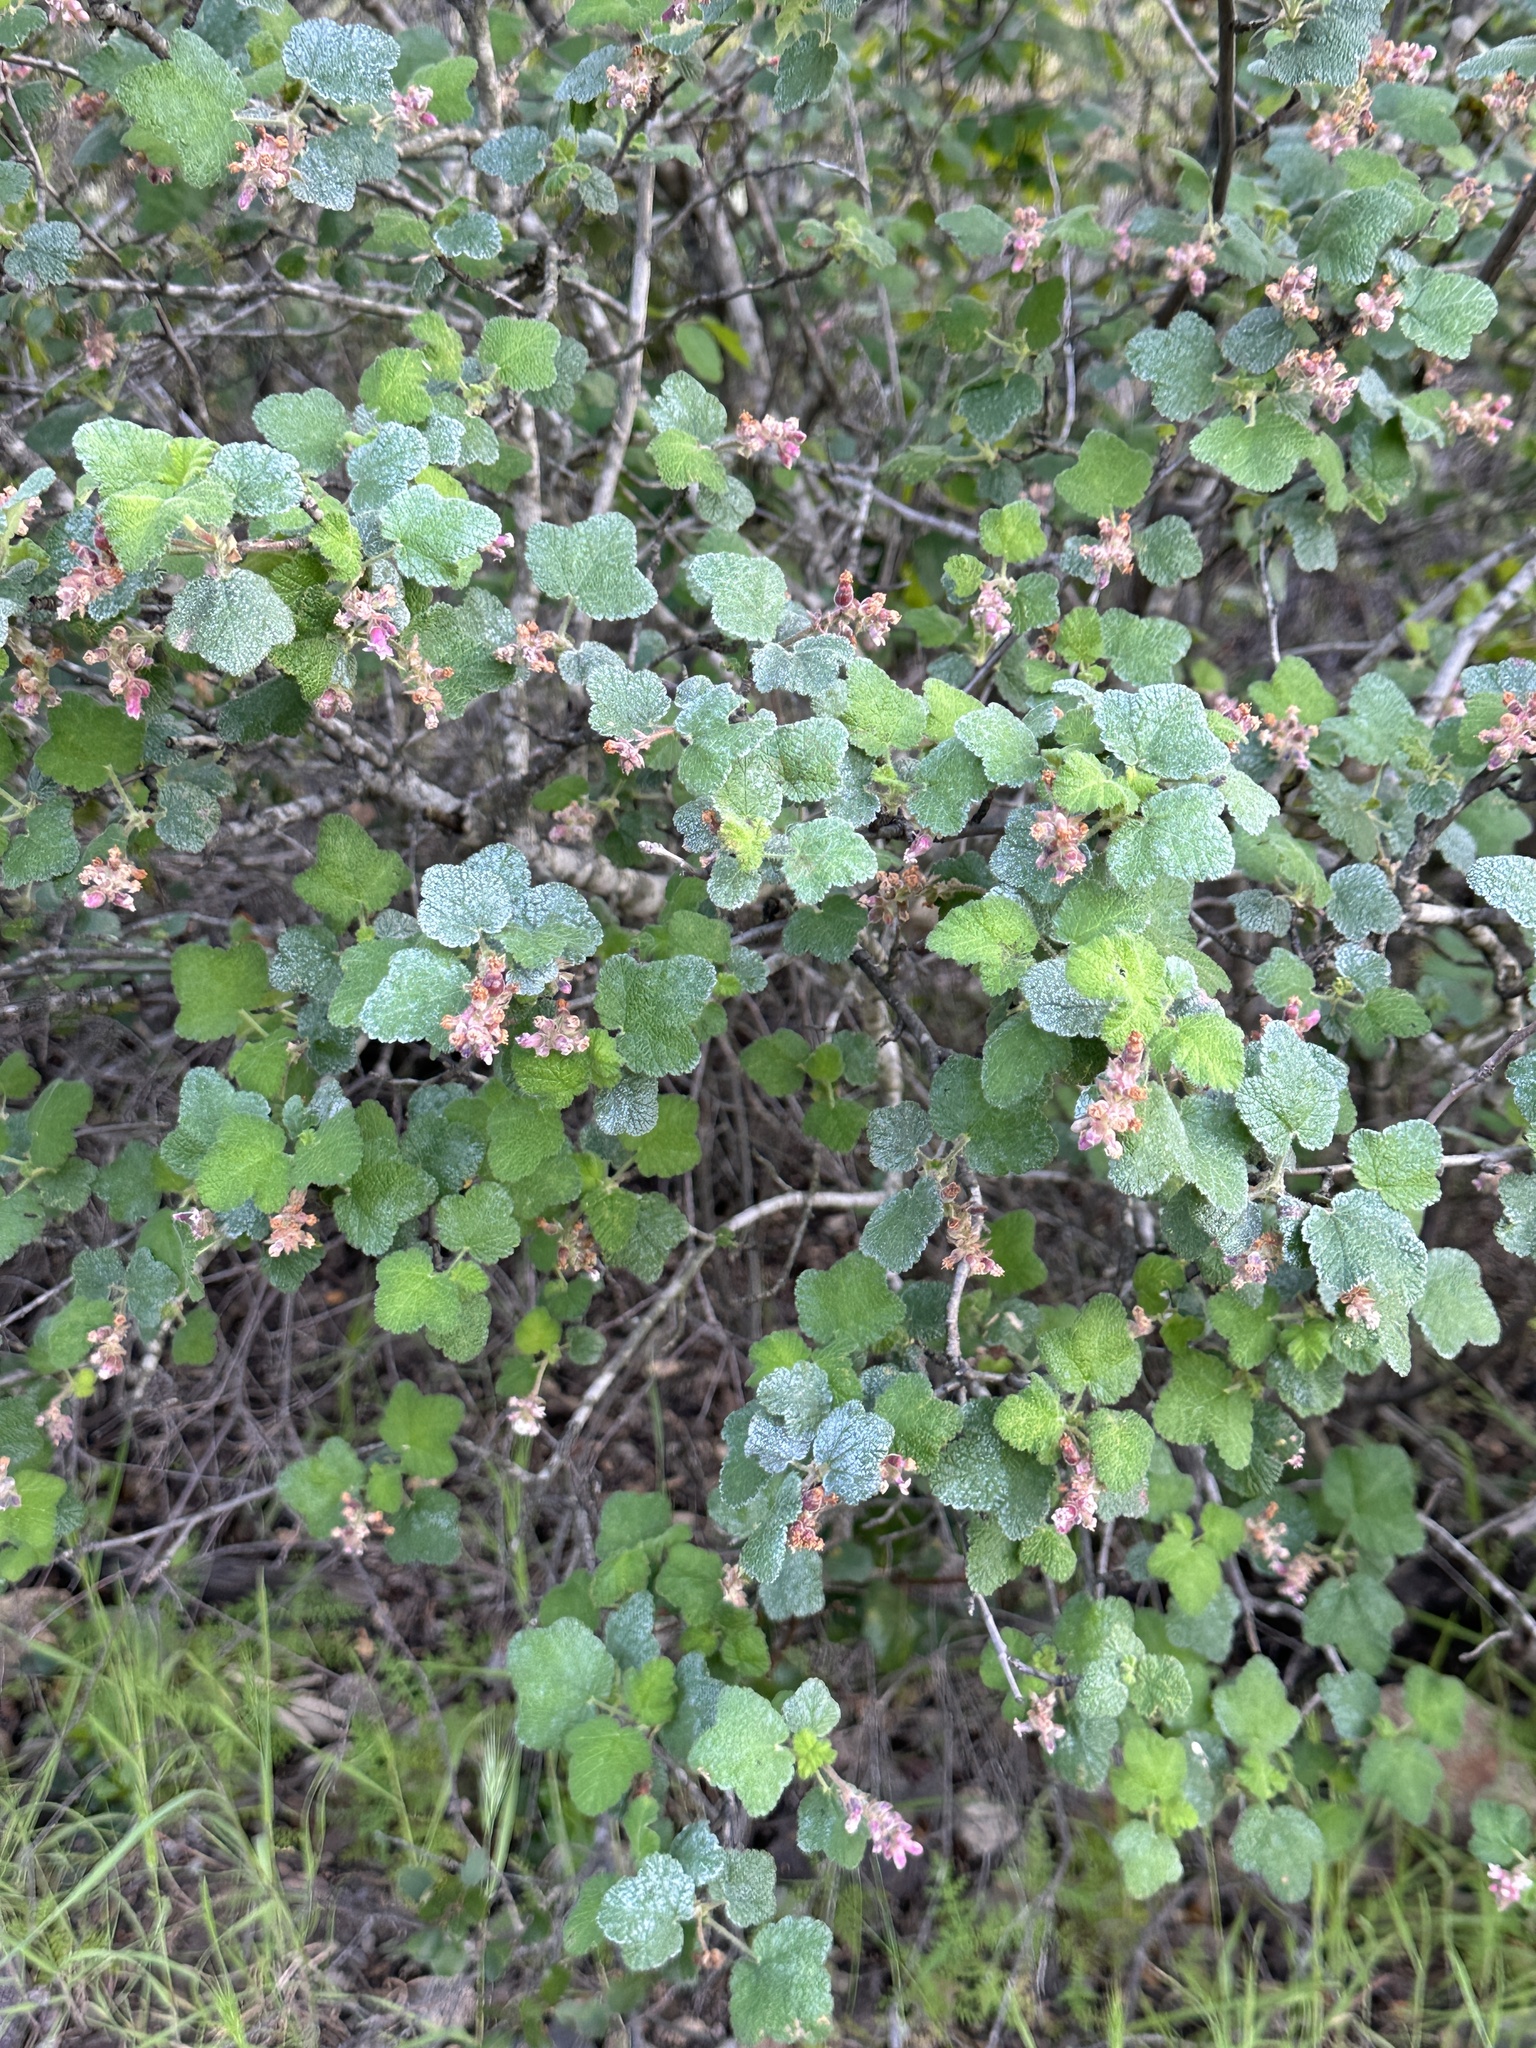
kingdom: Plantae
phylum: Tracheophyta
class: Magnoliopsida
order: Saxifragales
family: Grossulariaceae
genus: Ribes
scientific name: Ribes malvaceum
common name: Chaparral currant
